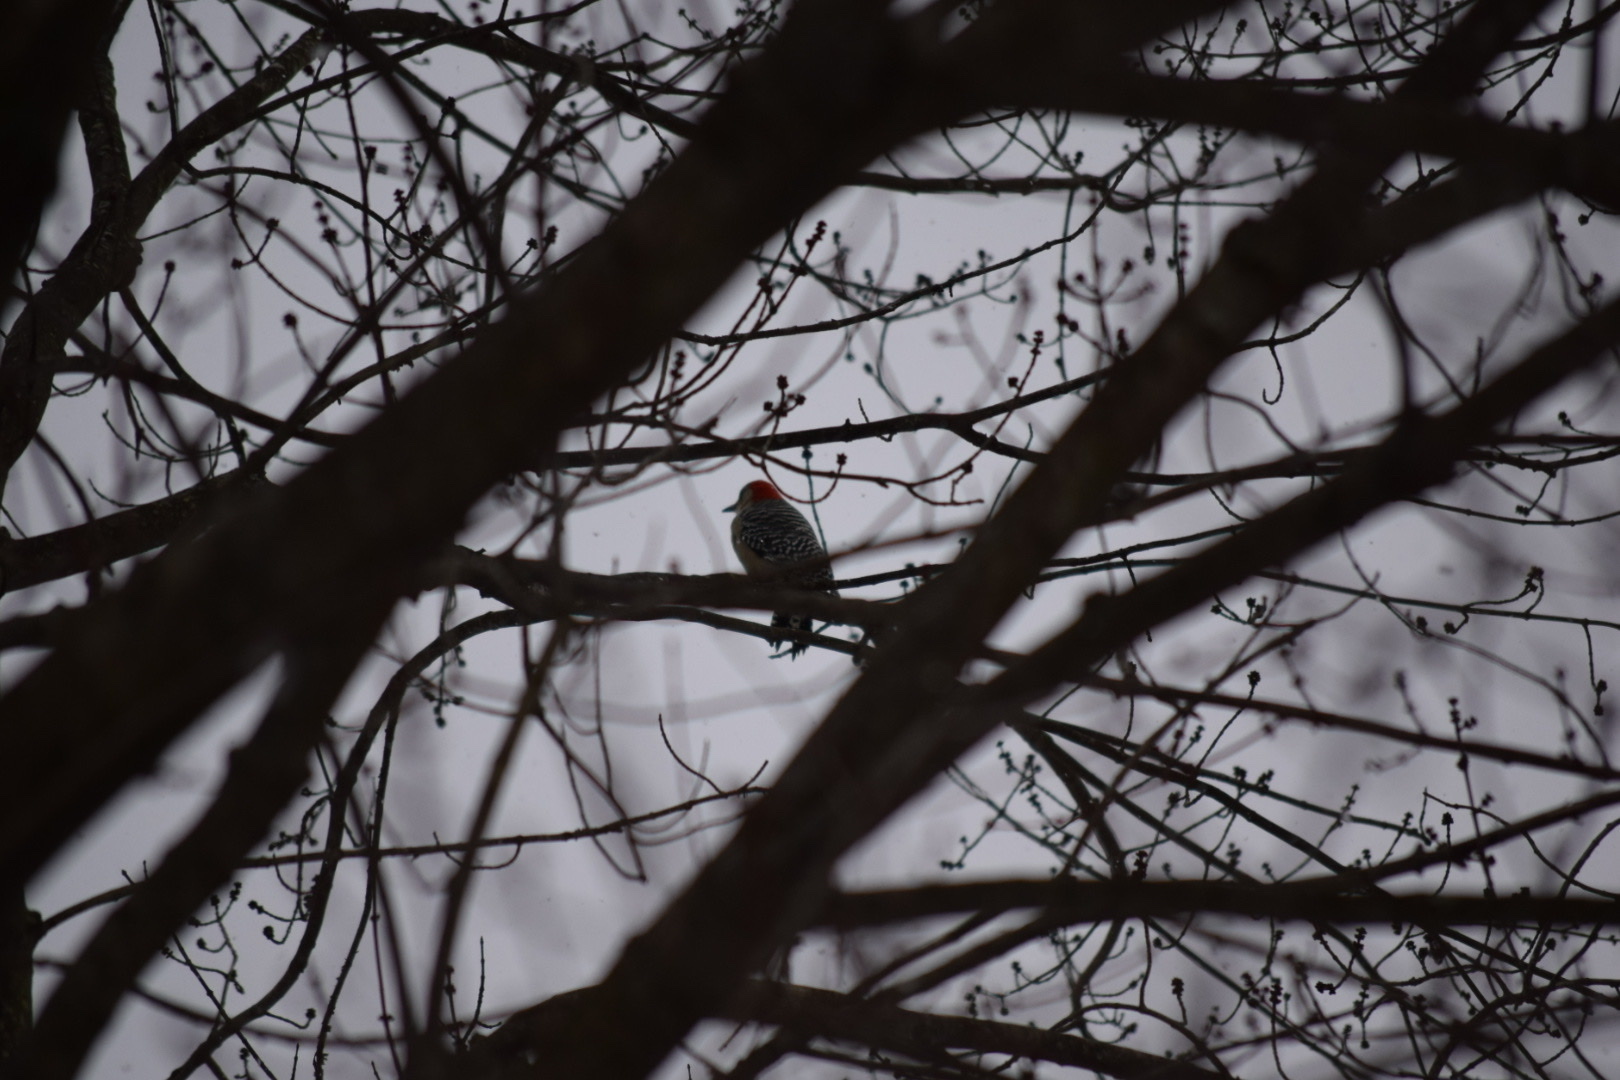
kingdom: Animalia
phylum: Chordata
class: Aves
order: Piciformes
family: Picidae
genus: Melanerpes
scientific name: Melanerpes carolinus
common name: Red-bellied woodpecker
